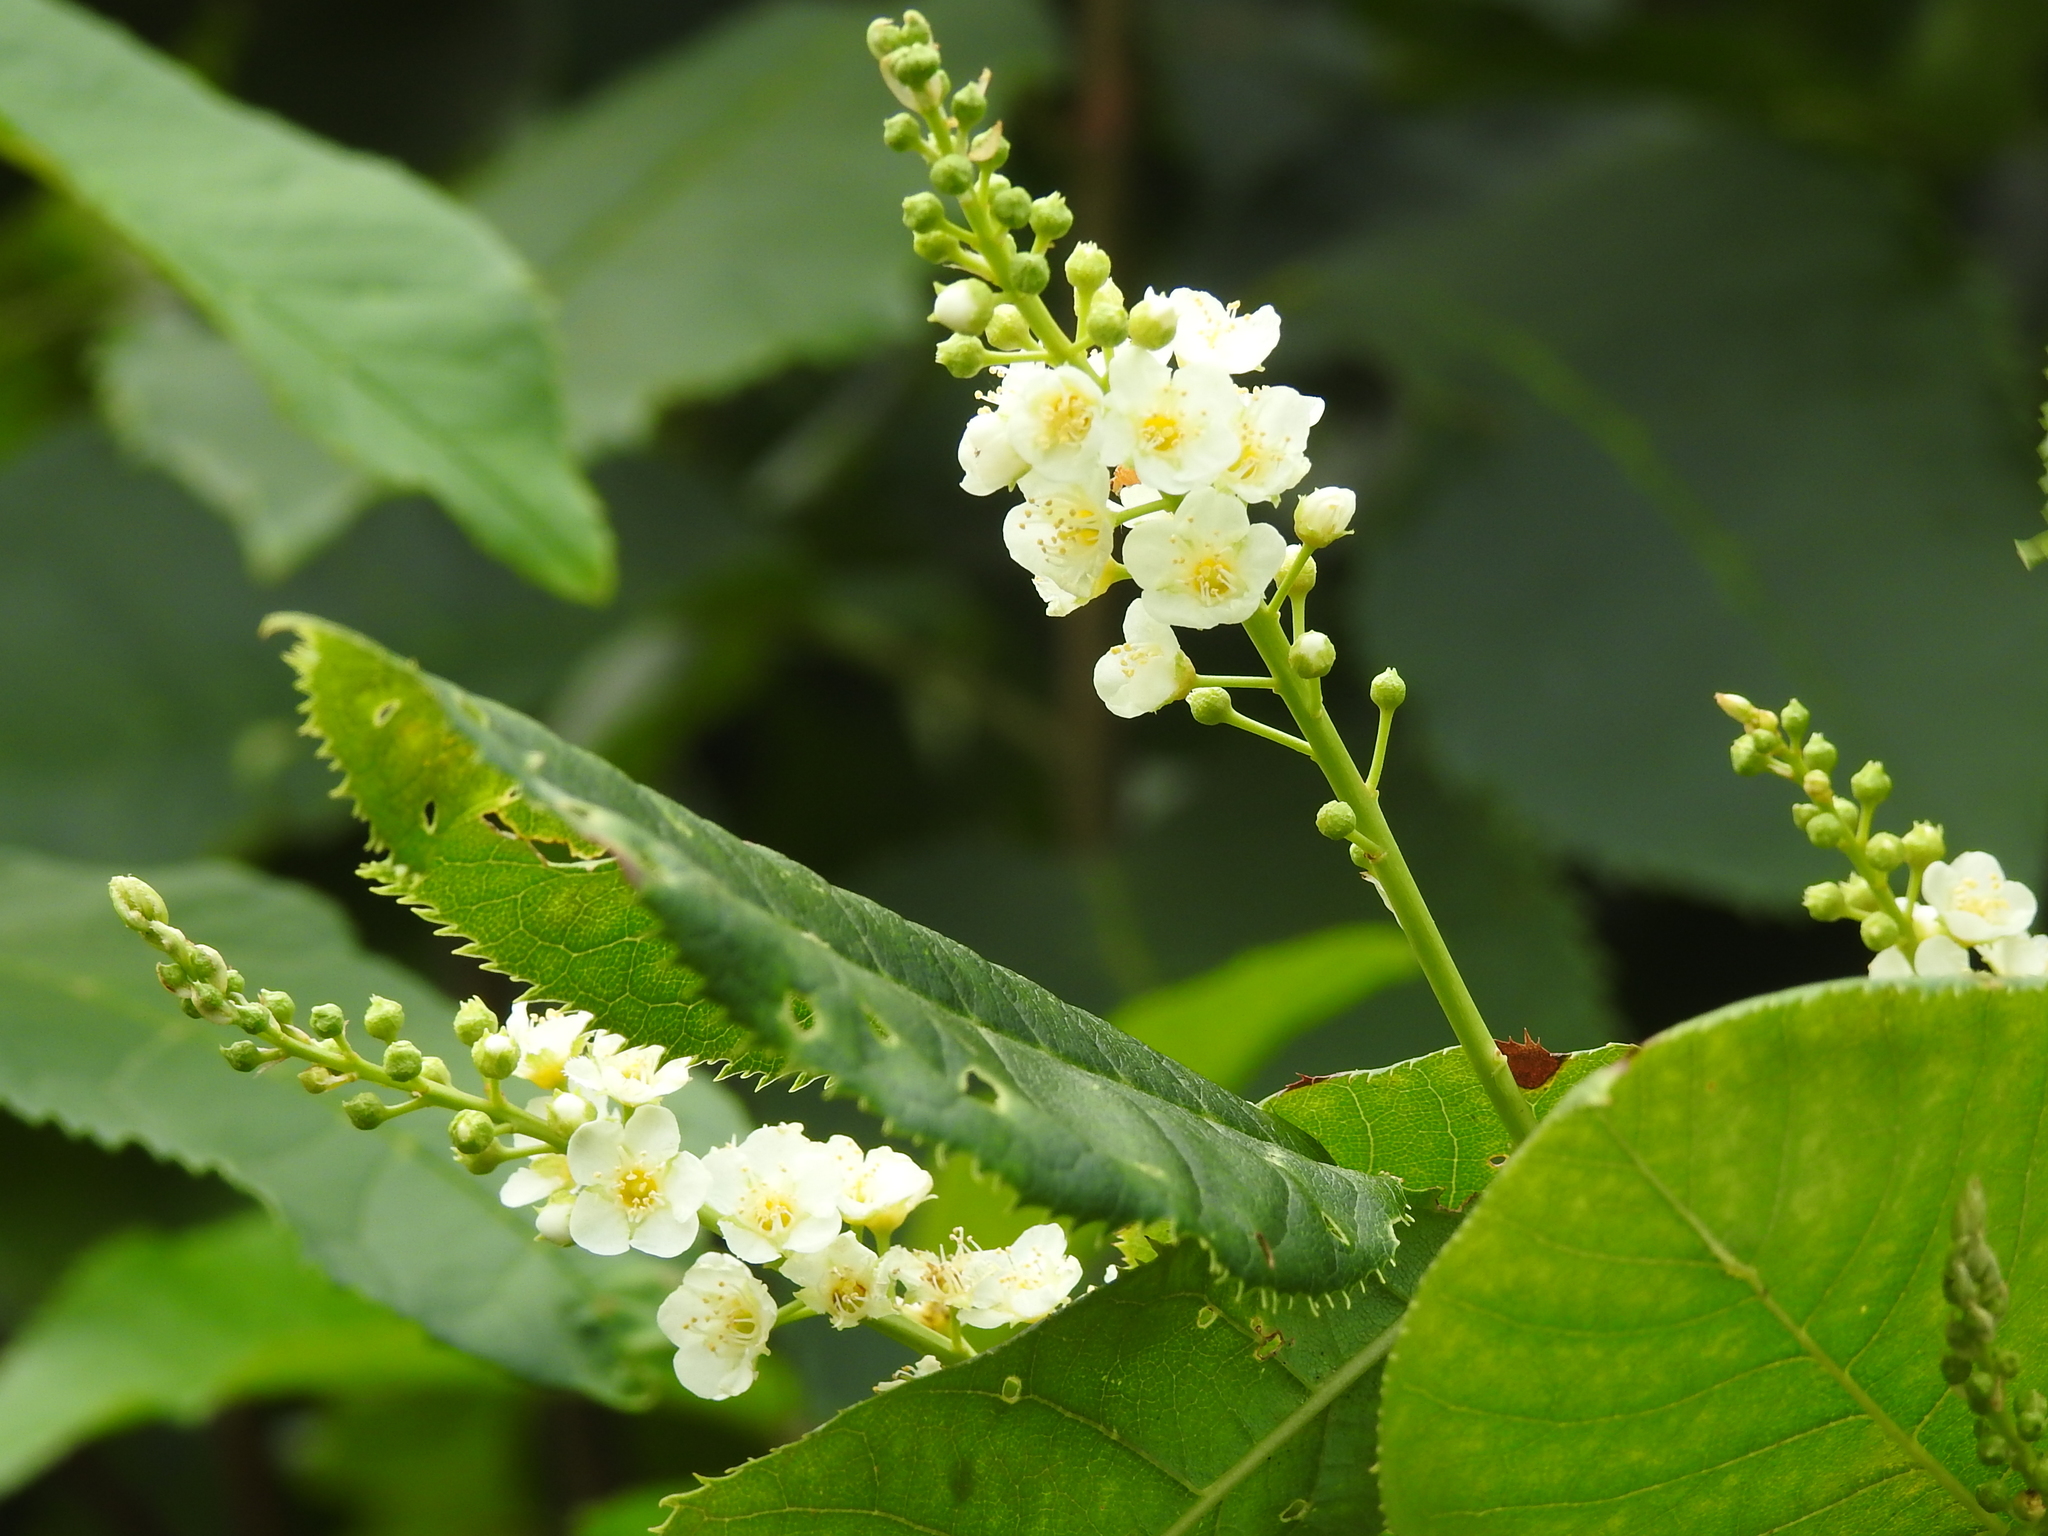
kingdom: Plantae
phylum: Tracheophyta
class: Magnoliopsida
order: Rosales
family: Rosaceae
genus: Prunus
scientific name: Prunus virginiana
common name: Chokecherry
